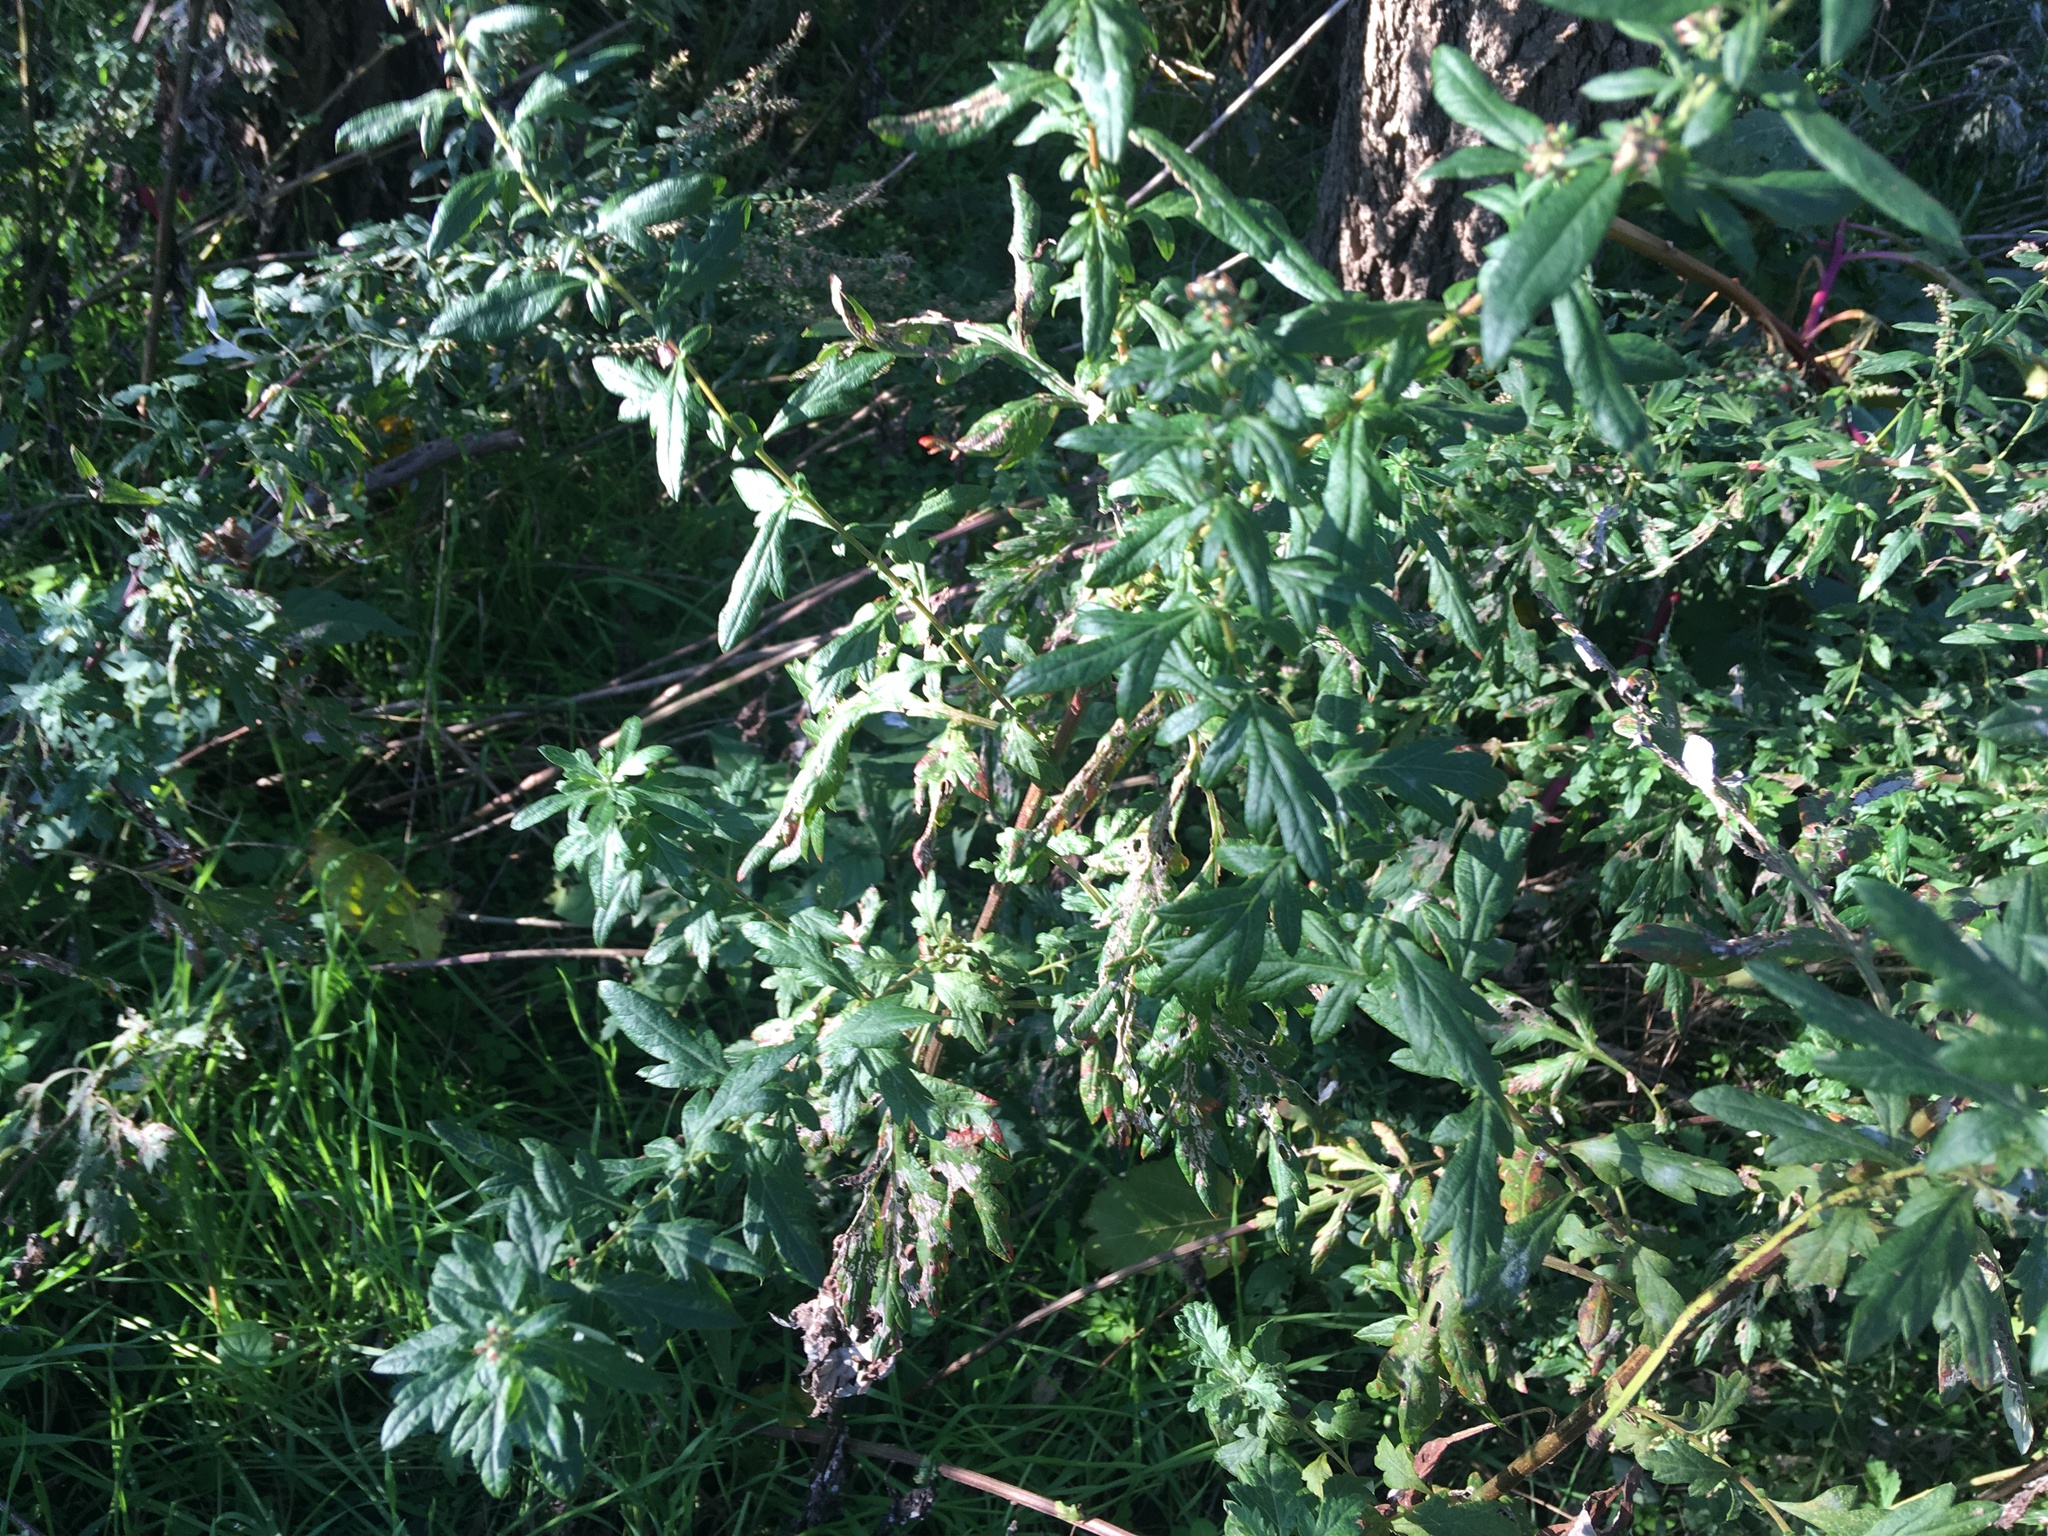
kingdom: Plantae
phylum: Tracheophyta
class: Magnoliopsida
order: Asterales
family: Asteraceae
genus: Artemisia
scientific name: Artemisia vulgaris
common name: Mugwort
